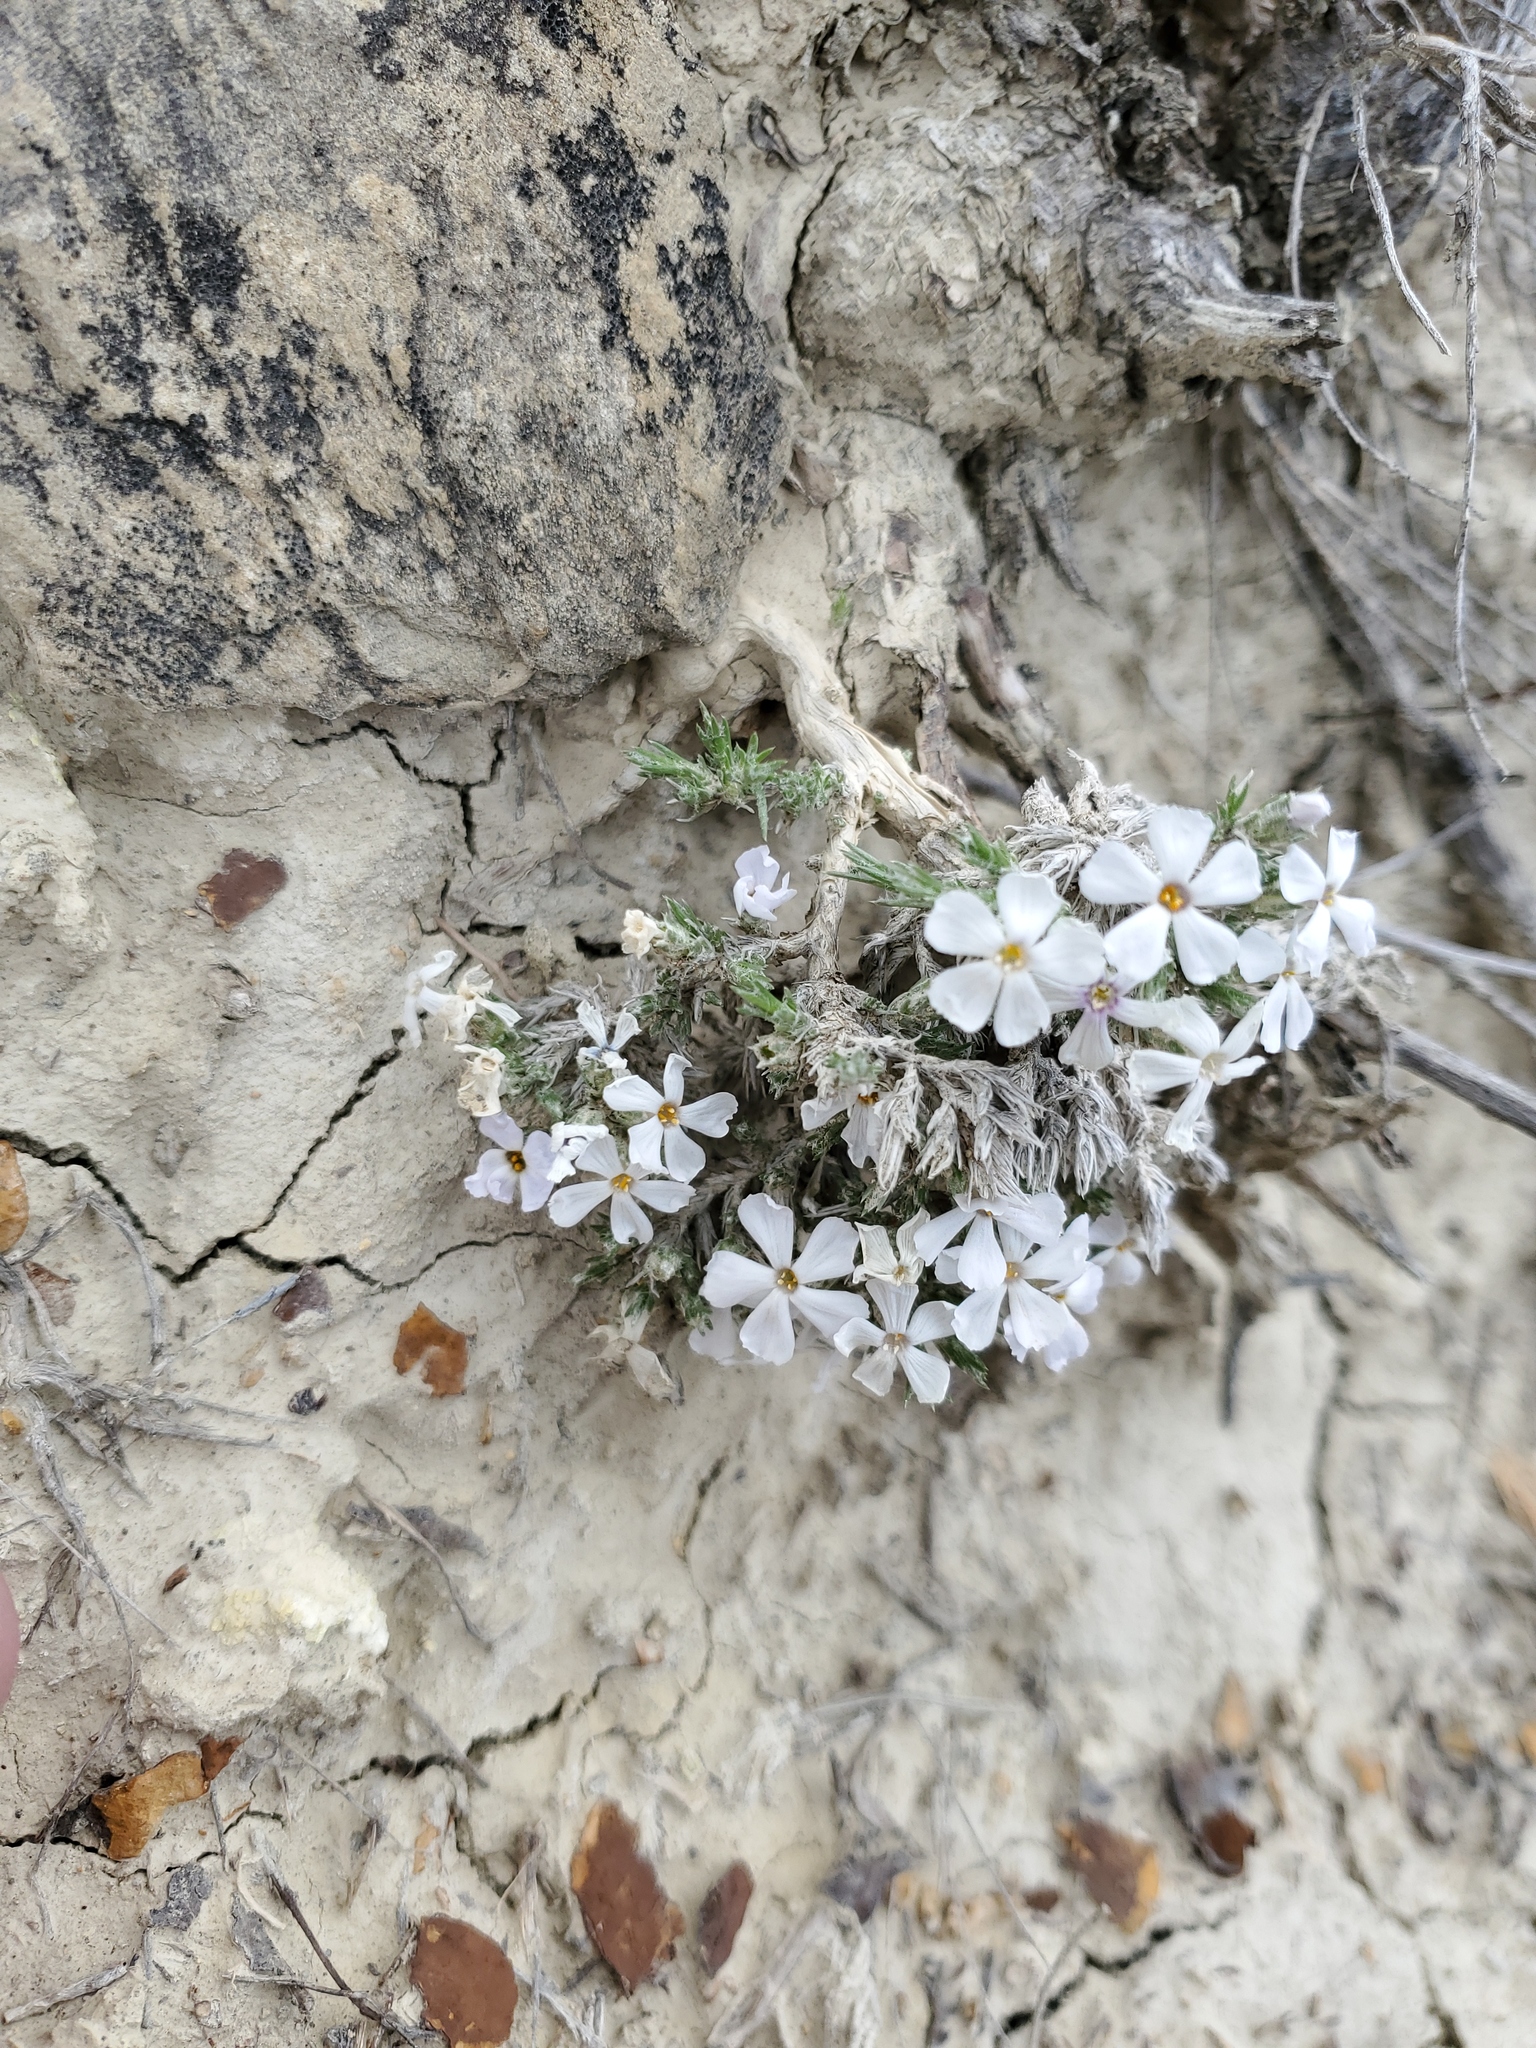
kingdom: Plantae
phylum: Tracheophyta
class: Magnoliopsida
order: Ericales
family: Polemoniaceae
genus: Phlox
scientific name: Phlox hoodii
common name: Moss phlox
